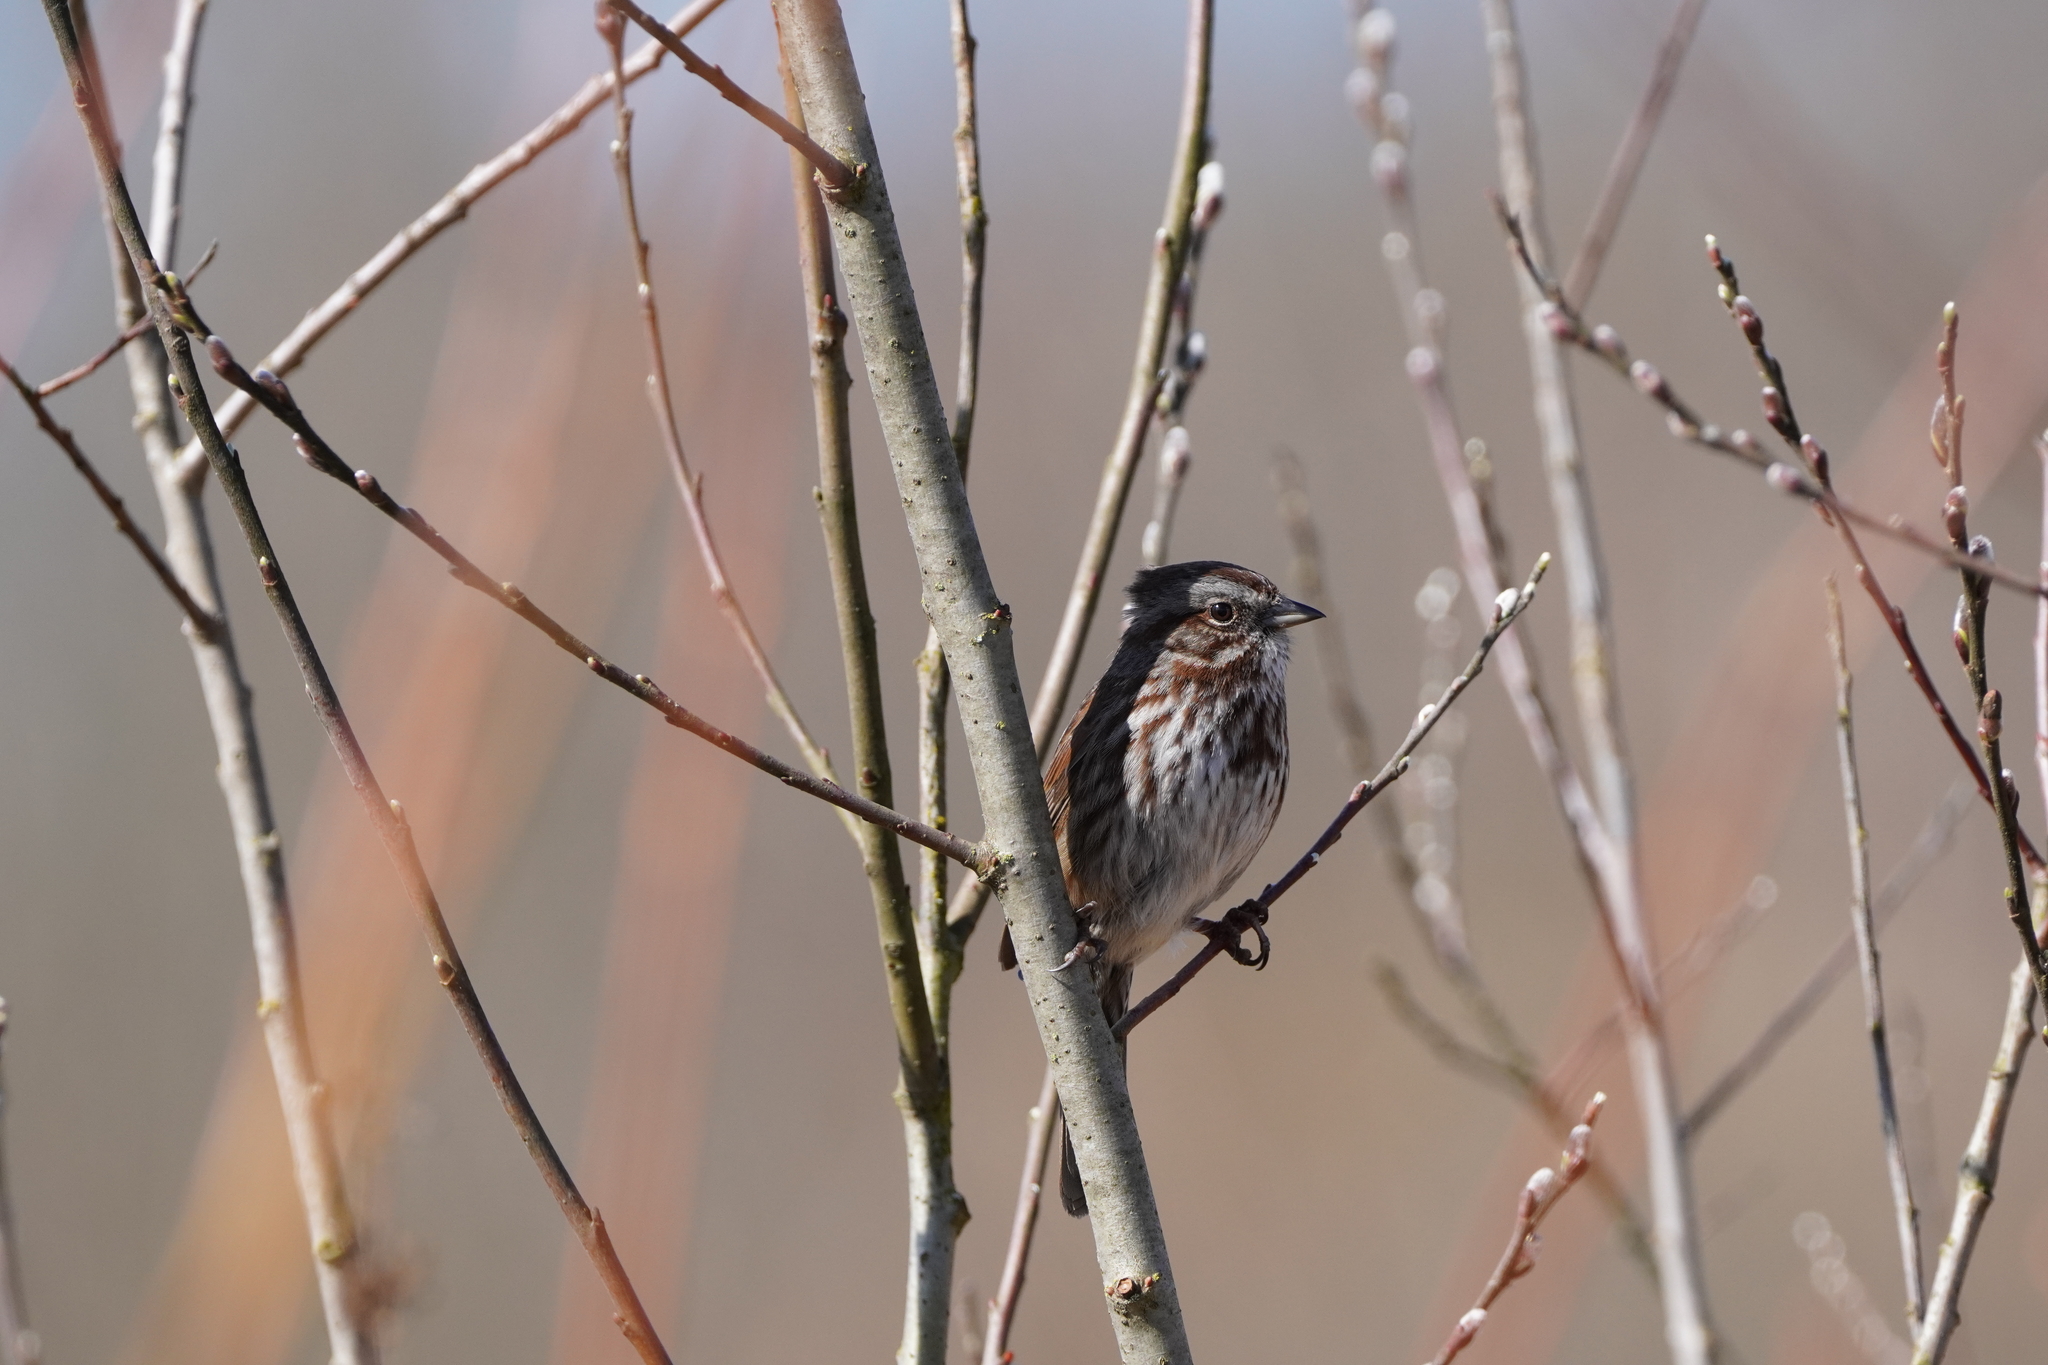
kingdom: Animalia
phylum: Chordata
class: Aves
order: Passeriformes
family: Passerellidae
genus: Melospiza
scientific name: Melospiza melodia
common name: Song sparrow
